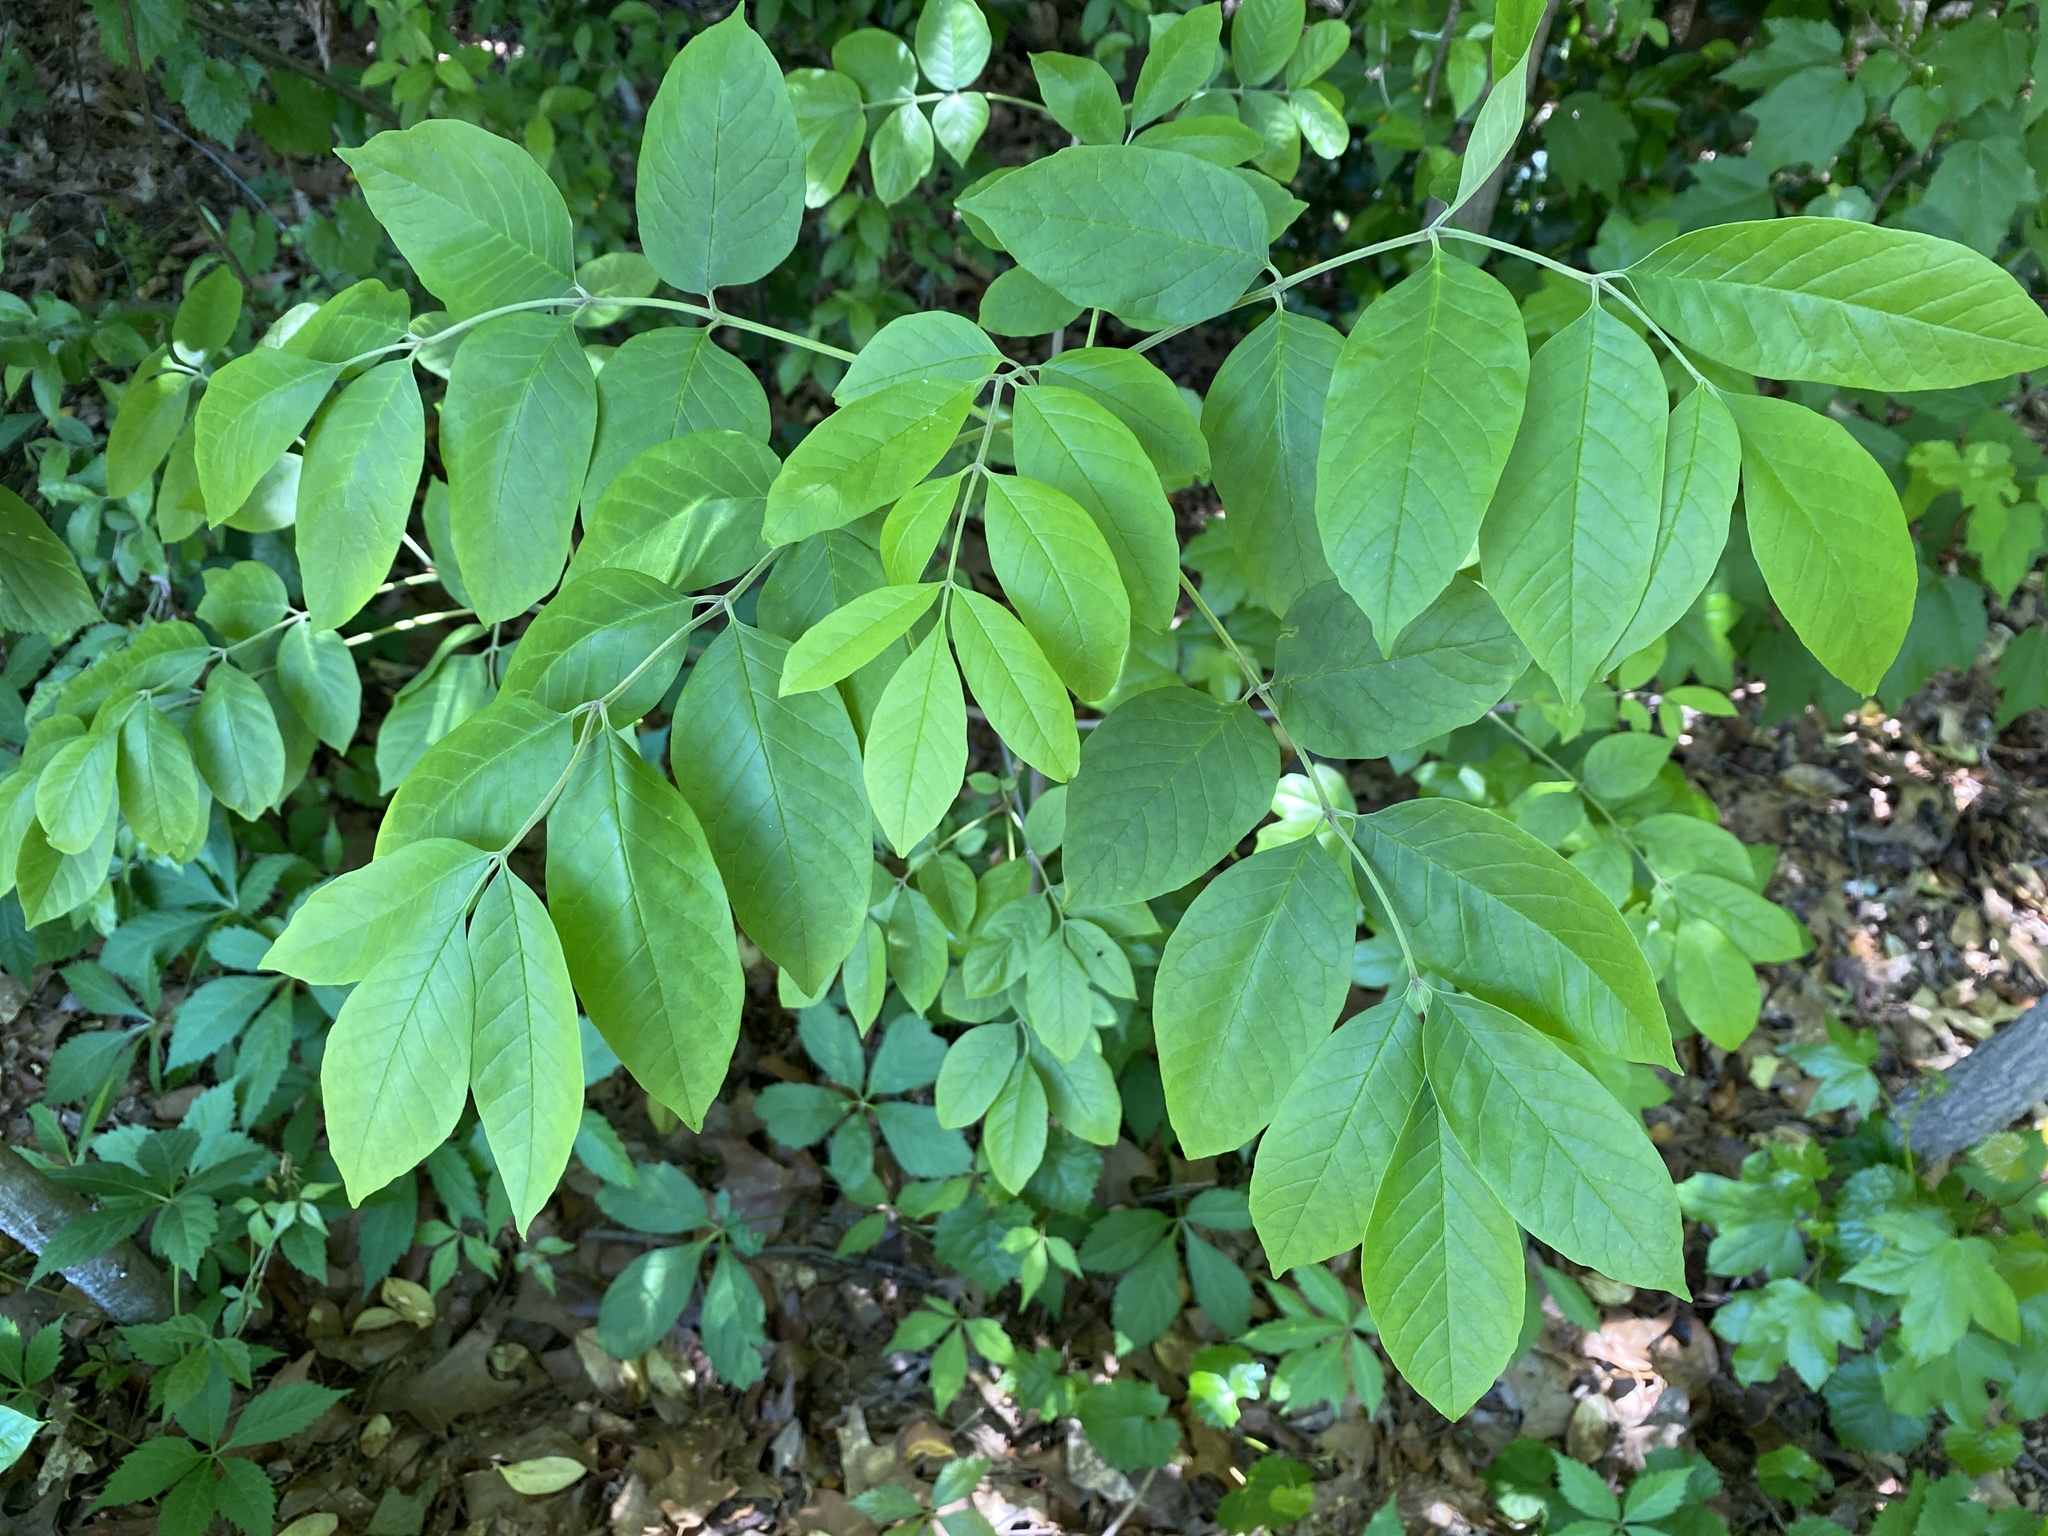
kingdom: Plantae
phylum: Tracheophyta
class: Magnoliopsida
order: Lamiales
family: Oleaceae
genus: Fraxinus
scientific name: Fraxinus americana
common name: White ash
